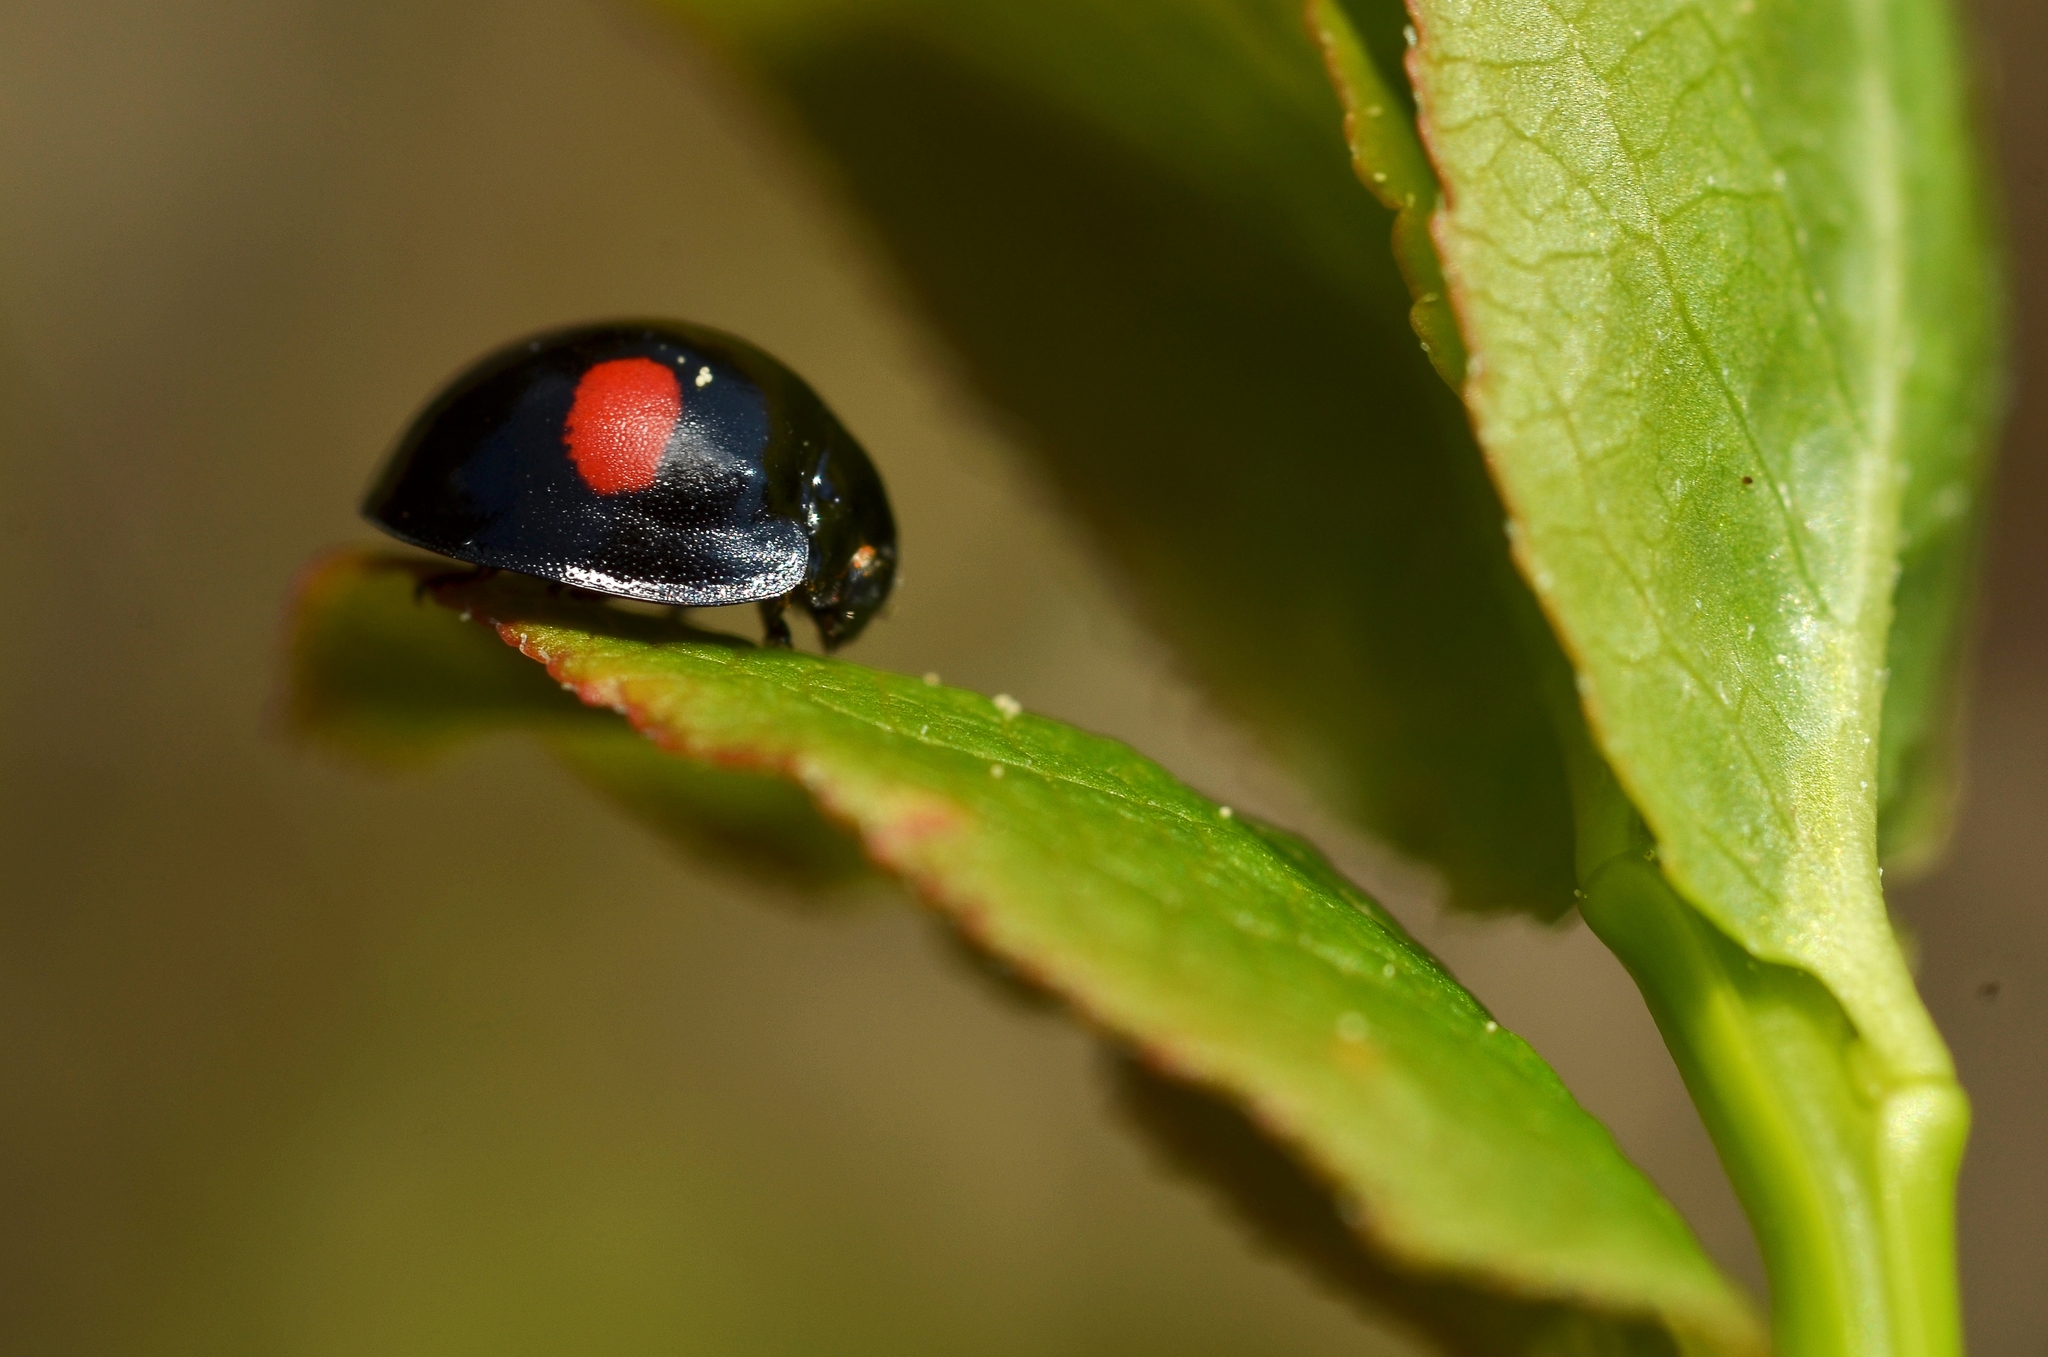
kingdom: Animalia
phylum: Arthropoda
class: Insecta
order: Coleoptera
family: Coccinellidae
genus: Chilocorus
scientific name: Chilocorus renipustulatus
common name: Kidney-spot ladybird
